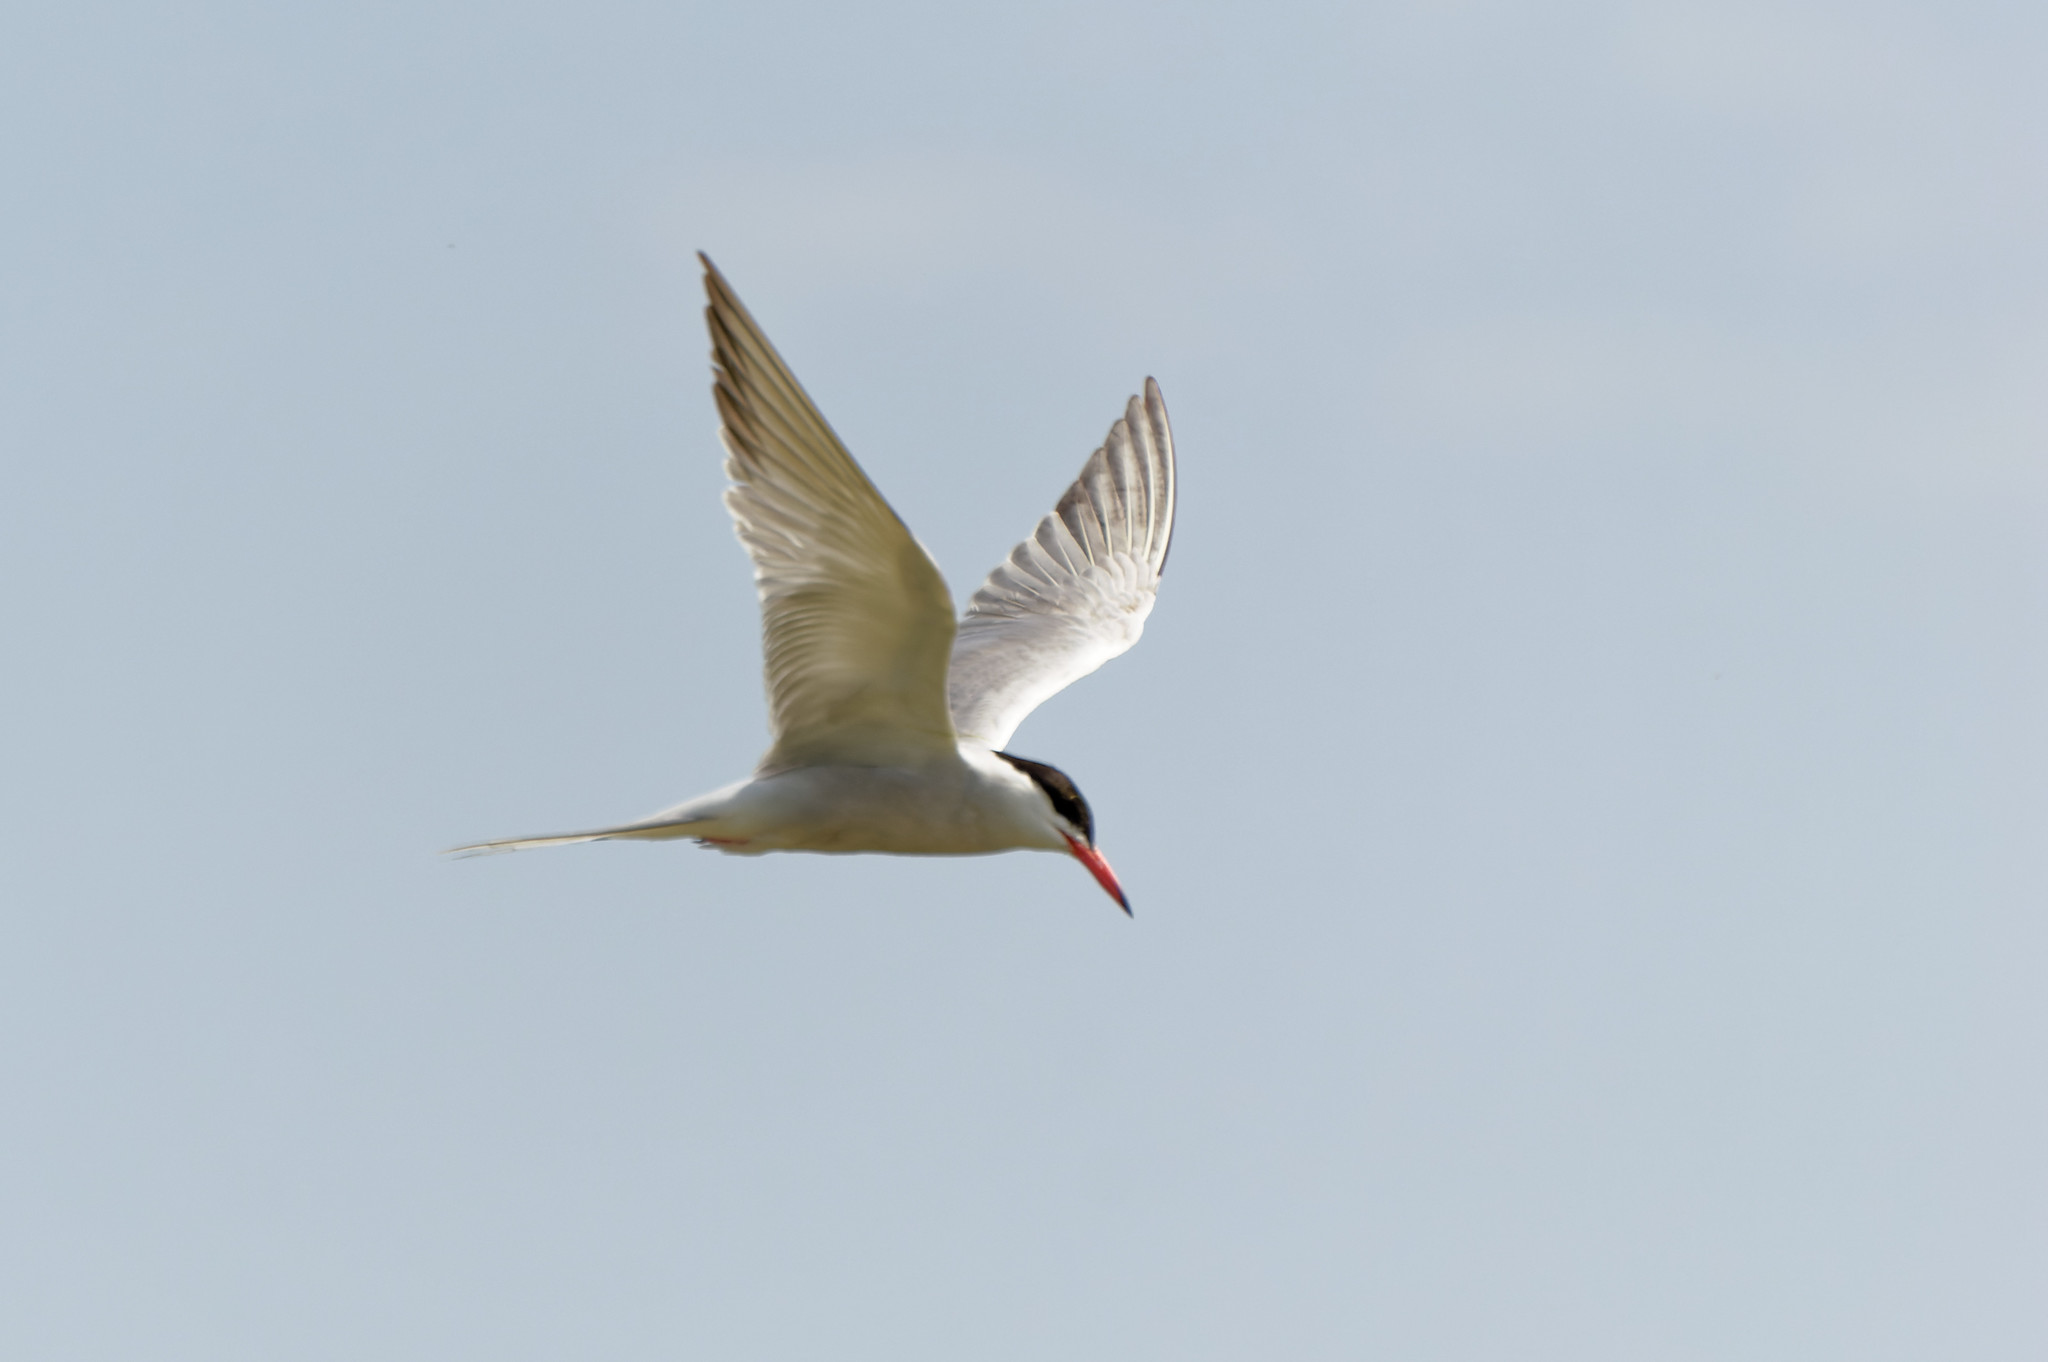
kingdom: Animalia
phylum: Chordata
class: Aves
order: Charadriiformes
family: Laridae
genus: Sterna
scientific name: Sterna hirundo
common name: Common tern
